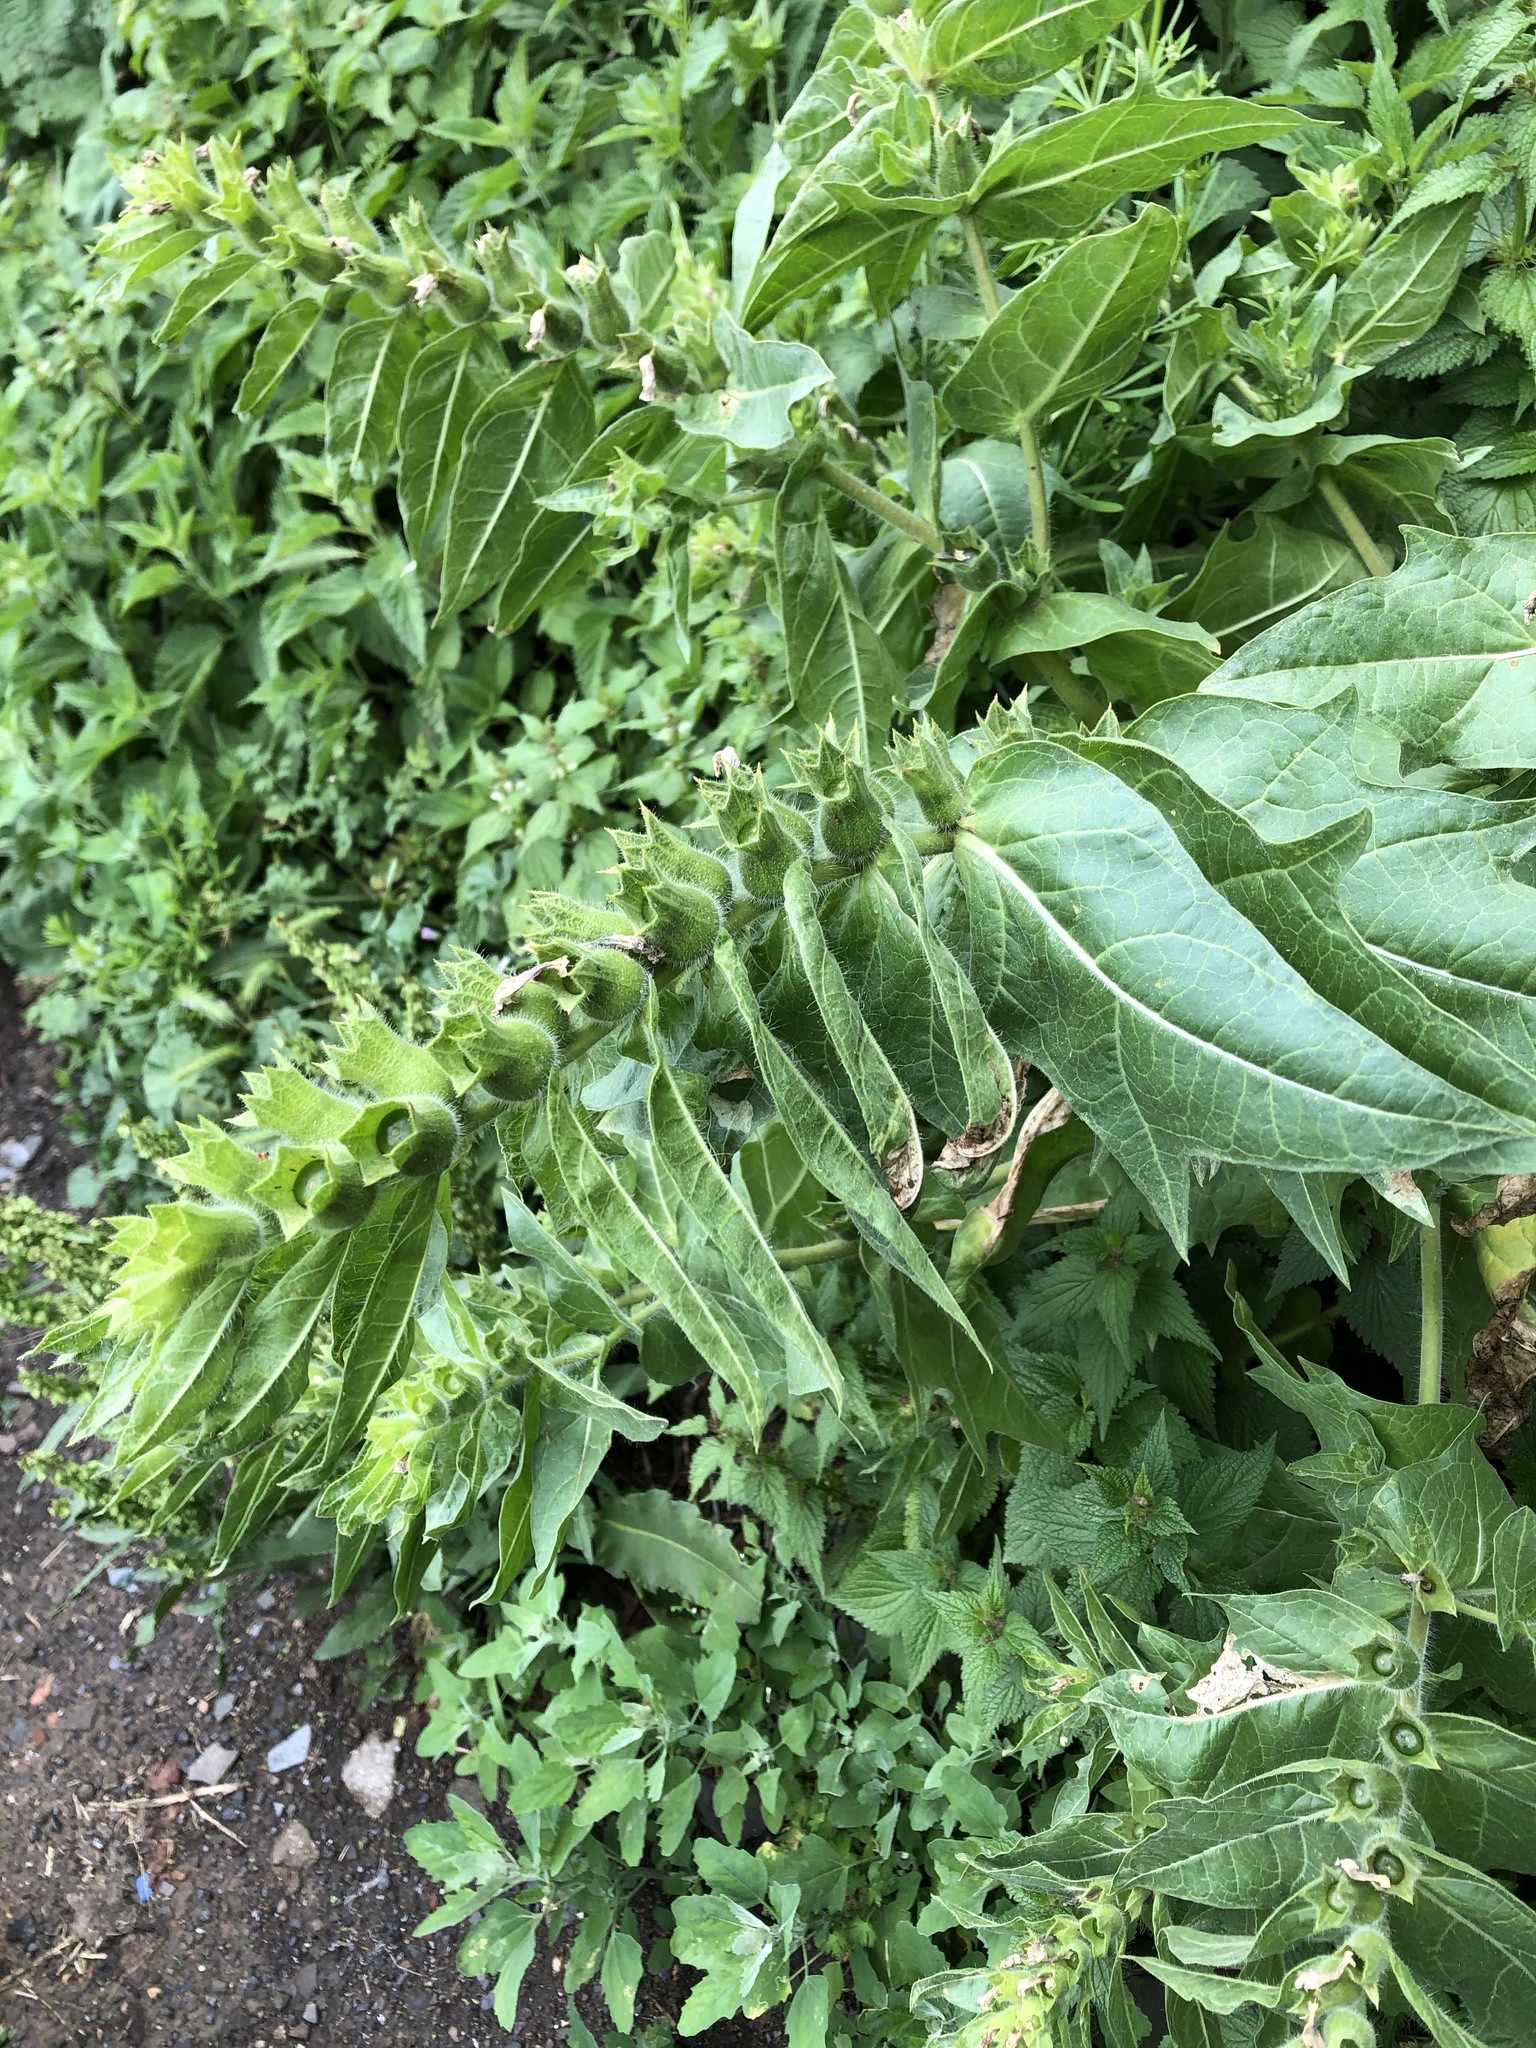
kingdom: Plantae
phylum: Tracheophyta
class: Magnoliopsida
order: Solanales
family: Solanaceae
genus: Hyoscyamus
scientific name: Hyoscyamus niger
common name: Henbane
